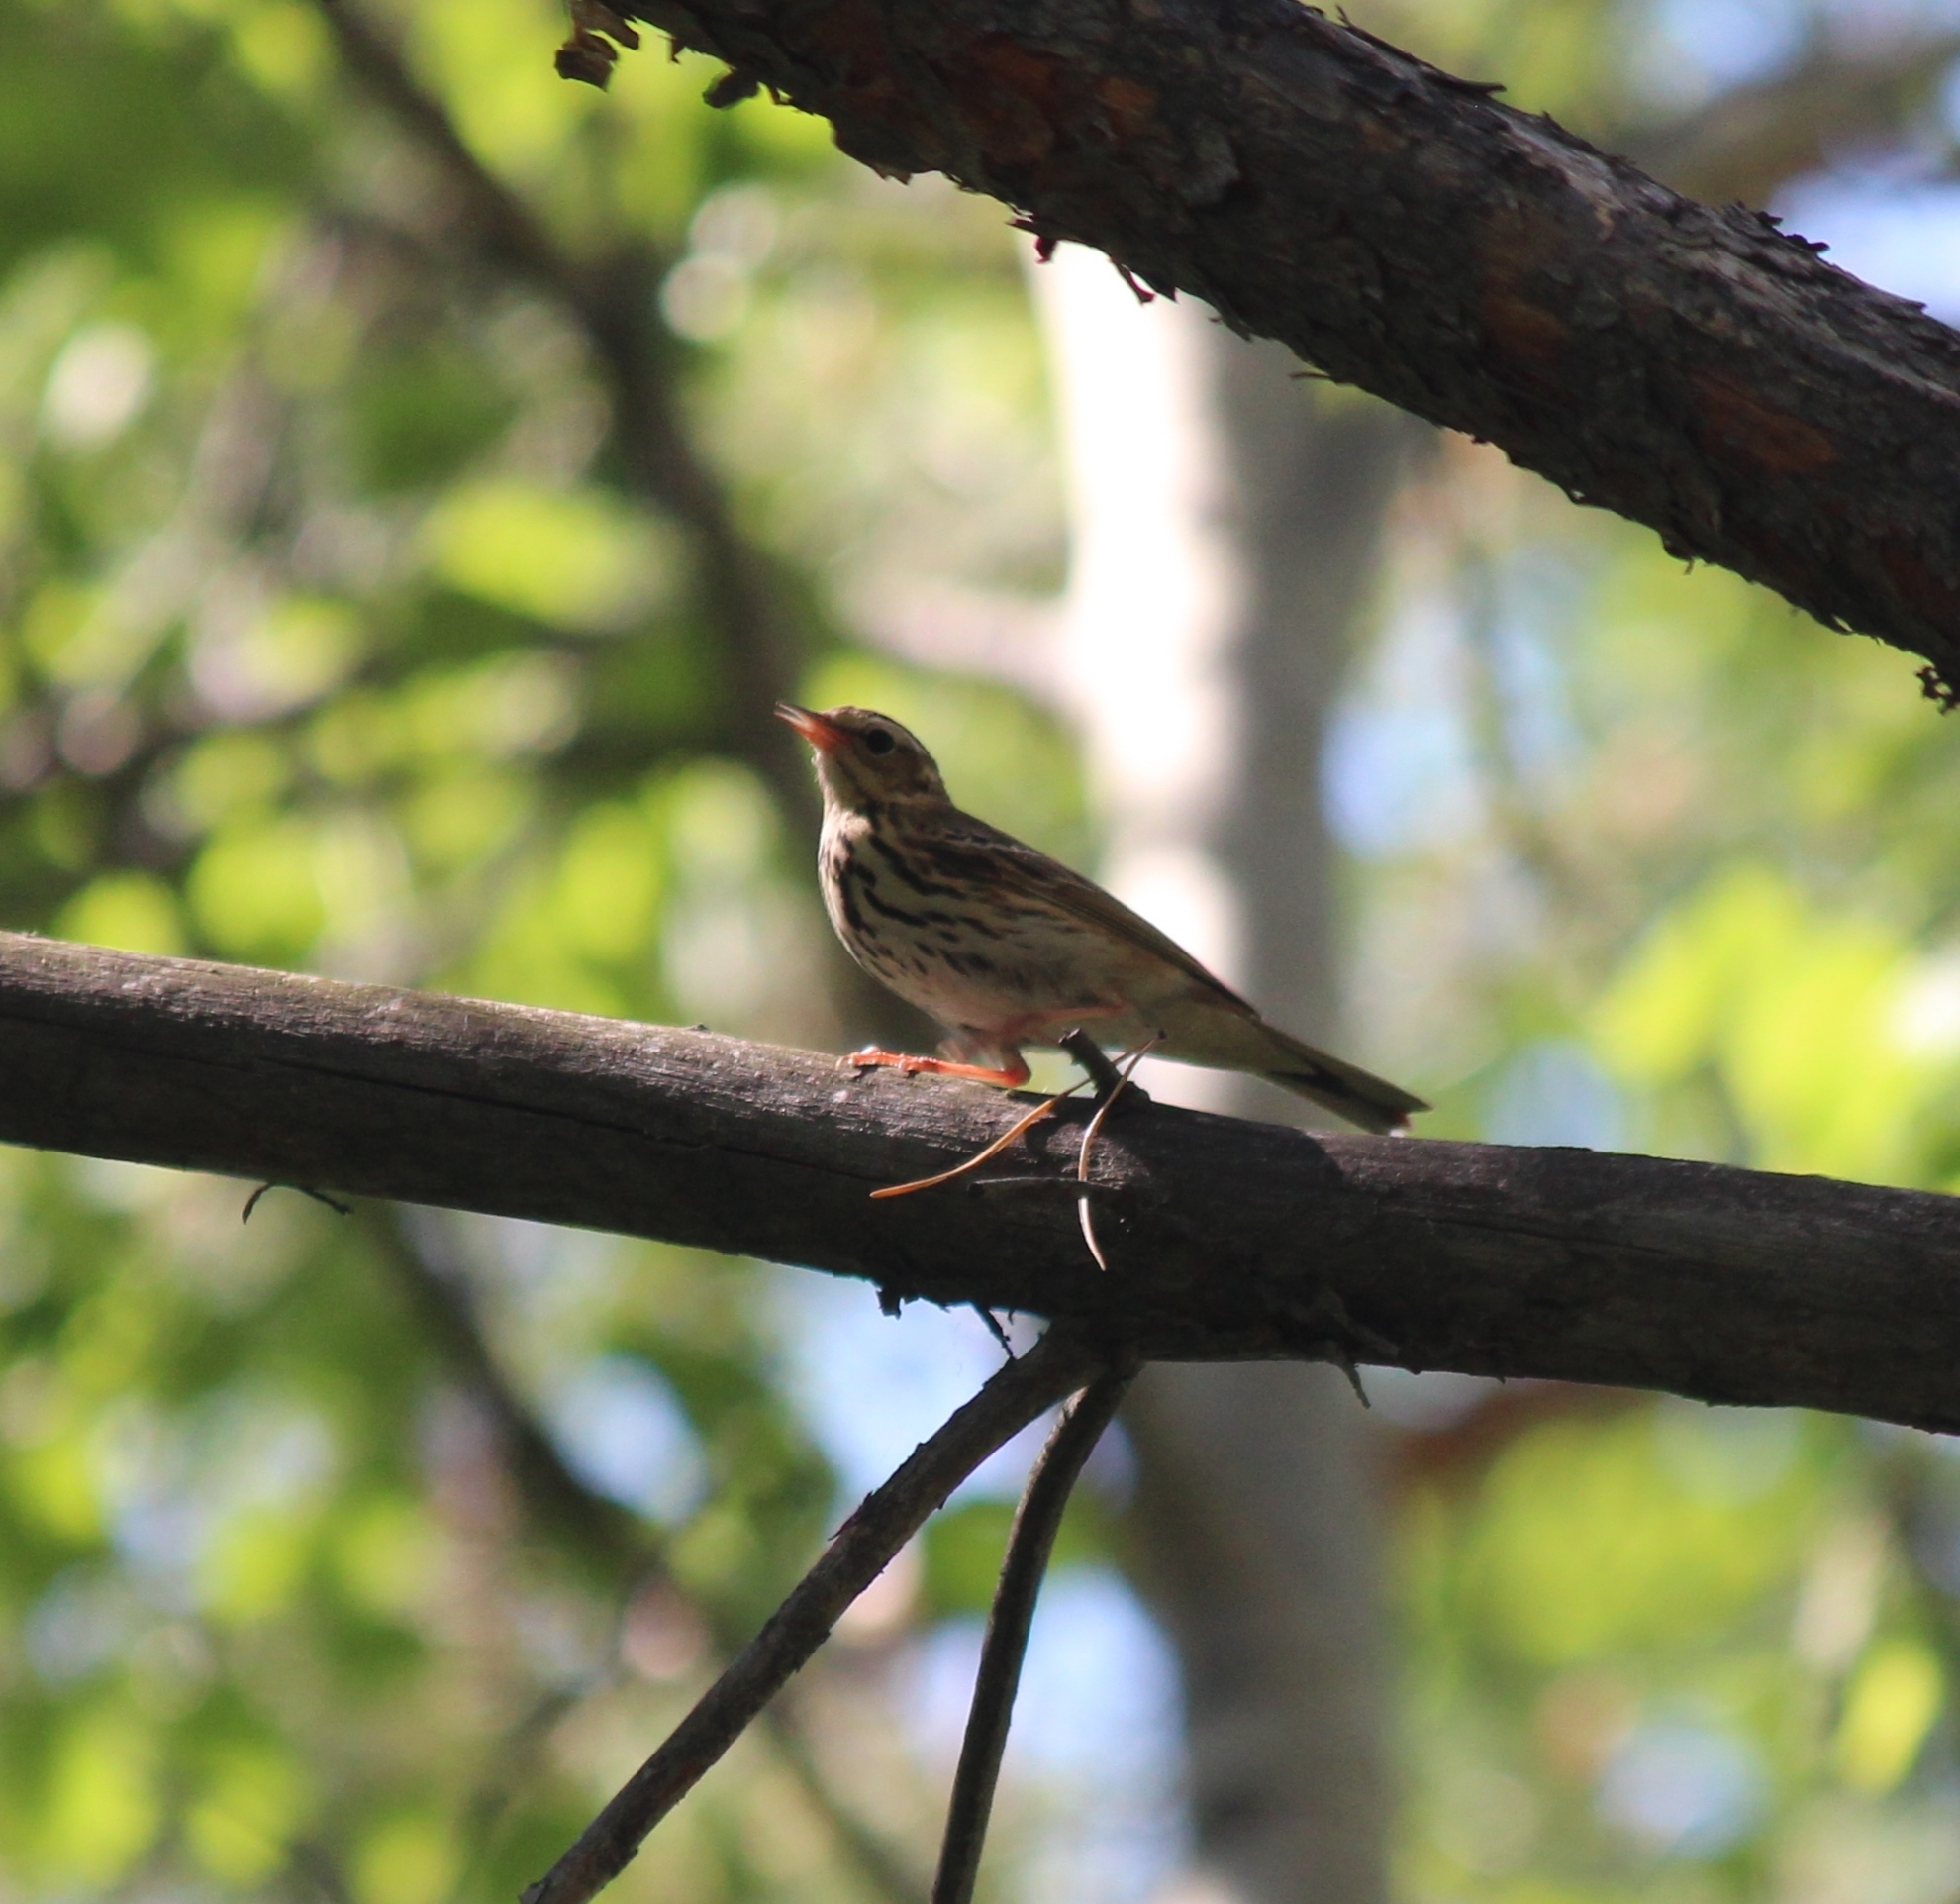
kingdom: Animalia
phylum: Chordata
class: Aves
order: Passeriformes
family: Motacillidae
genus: Anthus
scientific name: Anthus hodgsoni
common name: Olive-backed pipit
